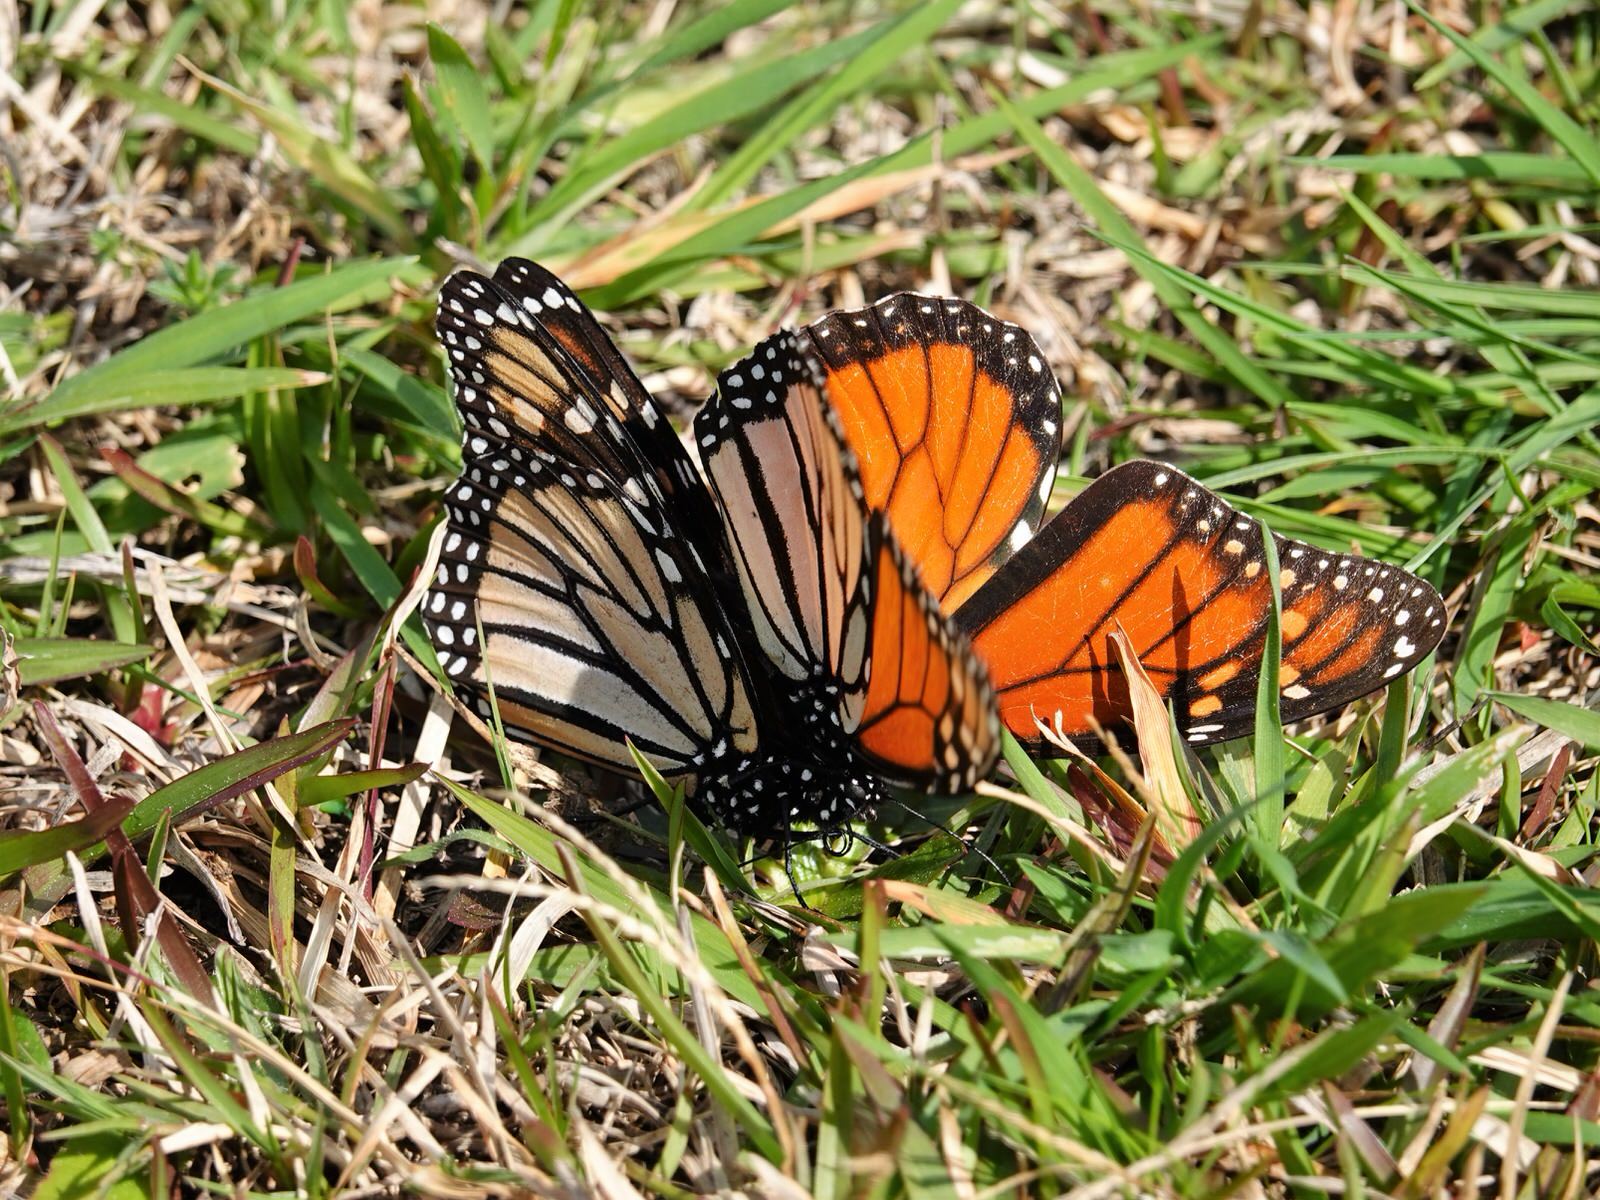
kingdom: Animalia
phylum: Arthropoda
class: Insecta
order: Lepidoptera
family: Nymphalidae
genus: Danaus
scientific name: Danaus plexippus
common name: Monarch
